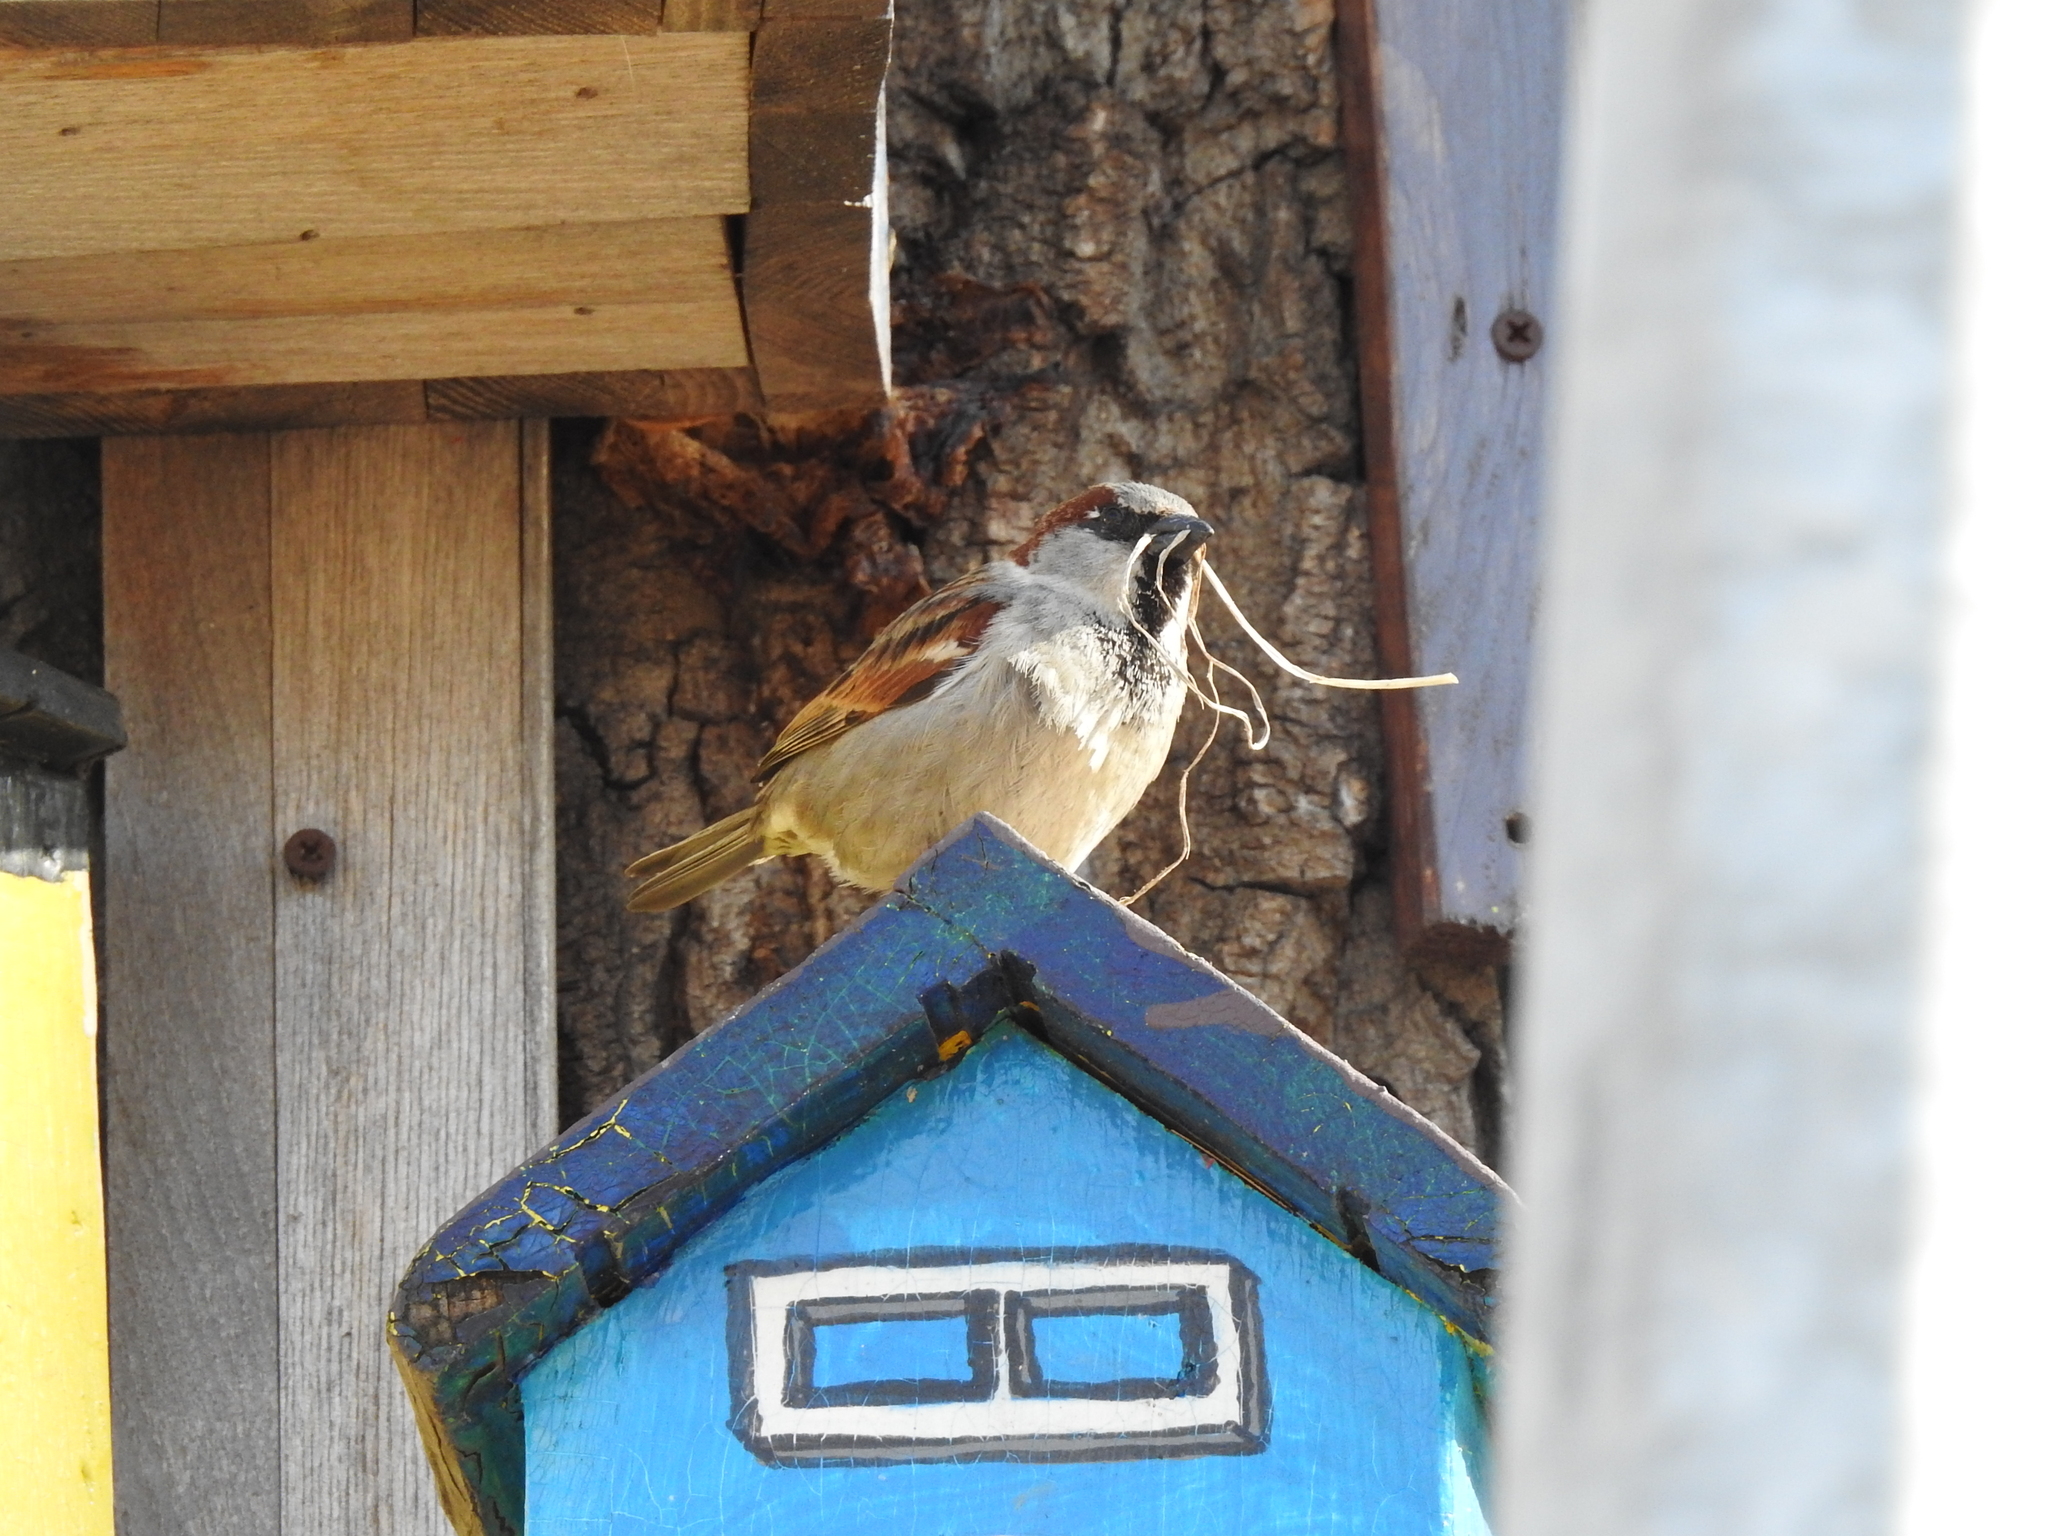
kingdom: Animalia
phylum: Chordata
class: Aves
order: Passeriformes
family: Passeridae
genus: Passer
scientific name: Passer domesticus
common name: House sparrow
